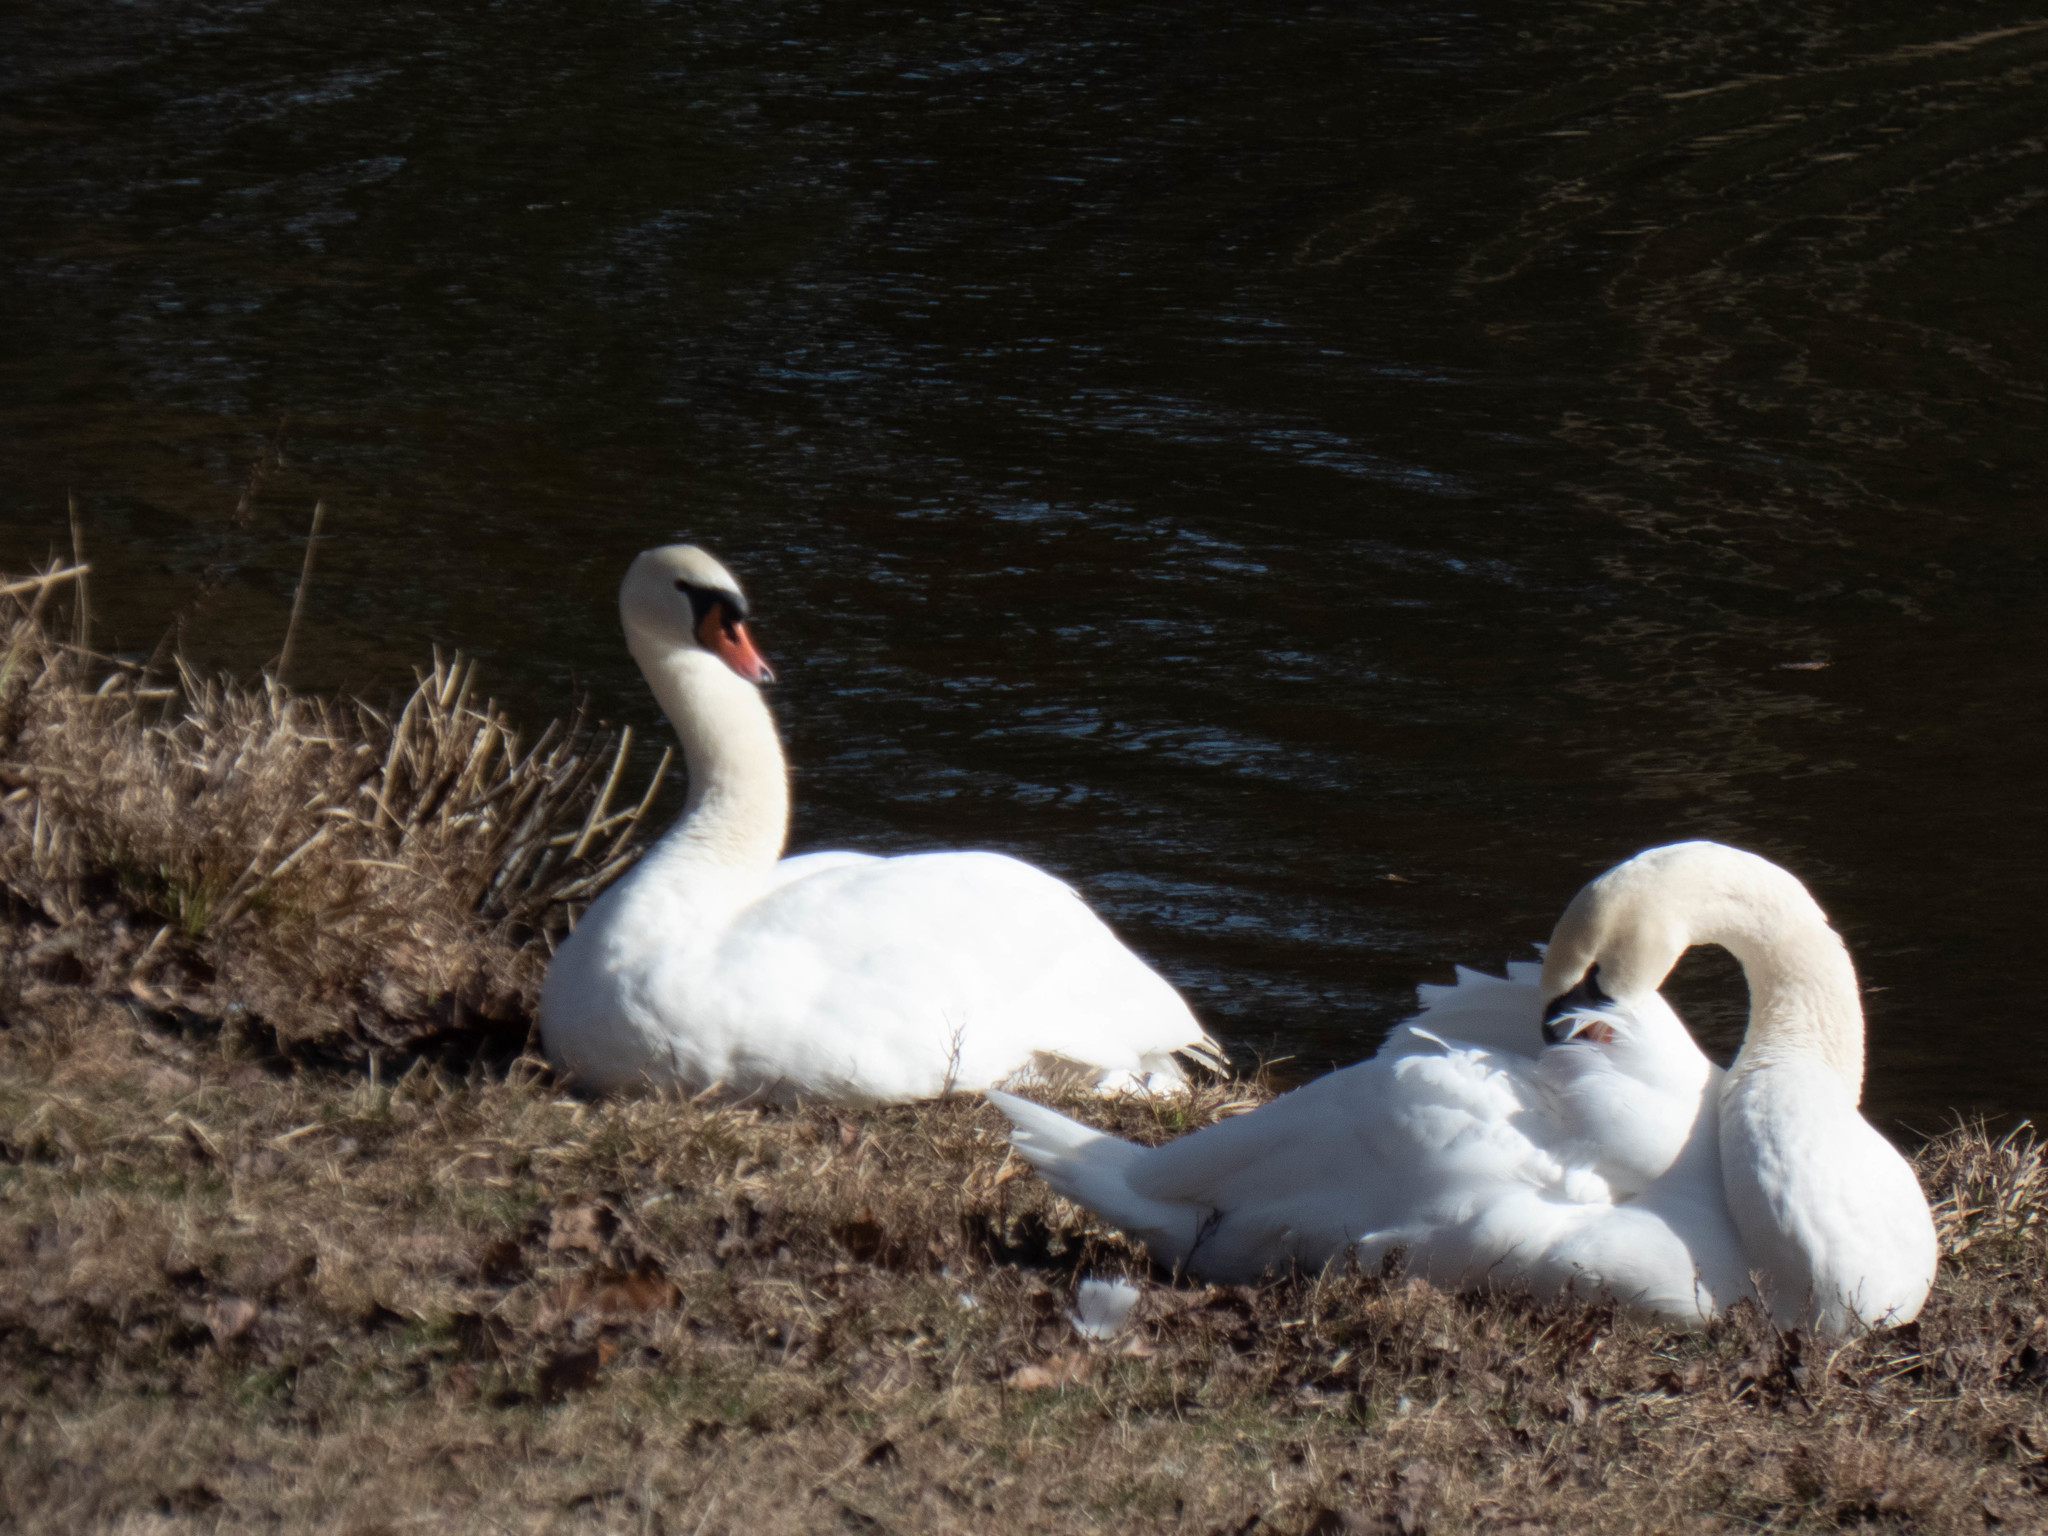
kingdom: Animalia
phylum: Chordata
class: Aves
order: Anseriformes
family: Anatidae
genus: Cygnus
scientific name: Cygnus olor
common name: Mute swan
